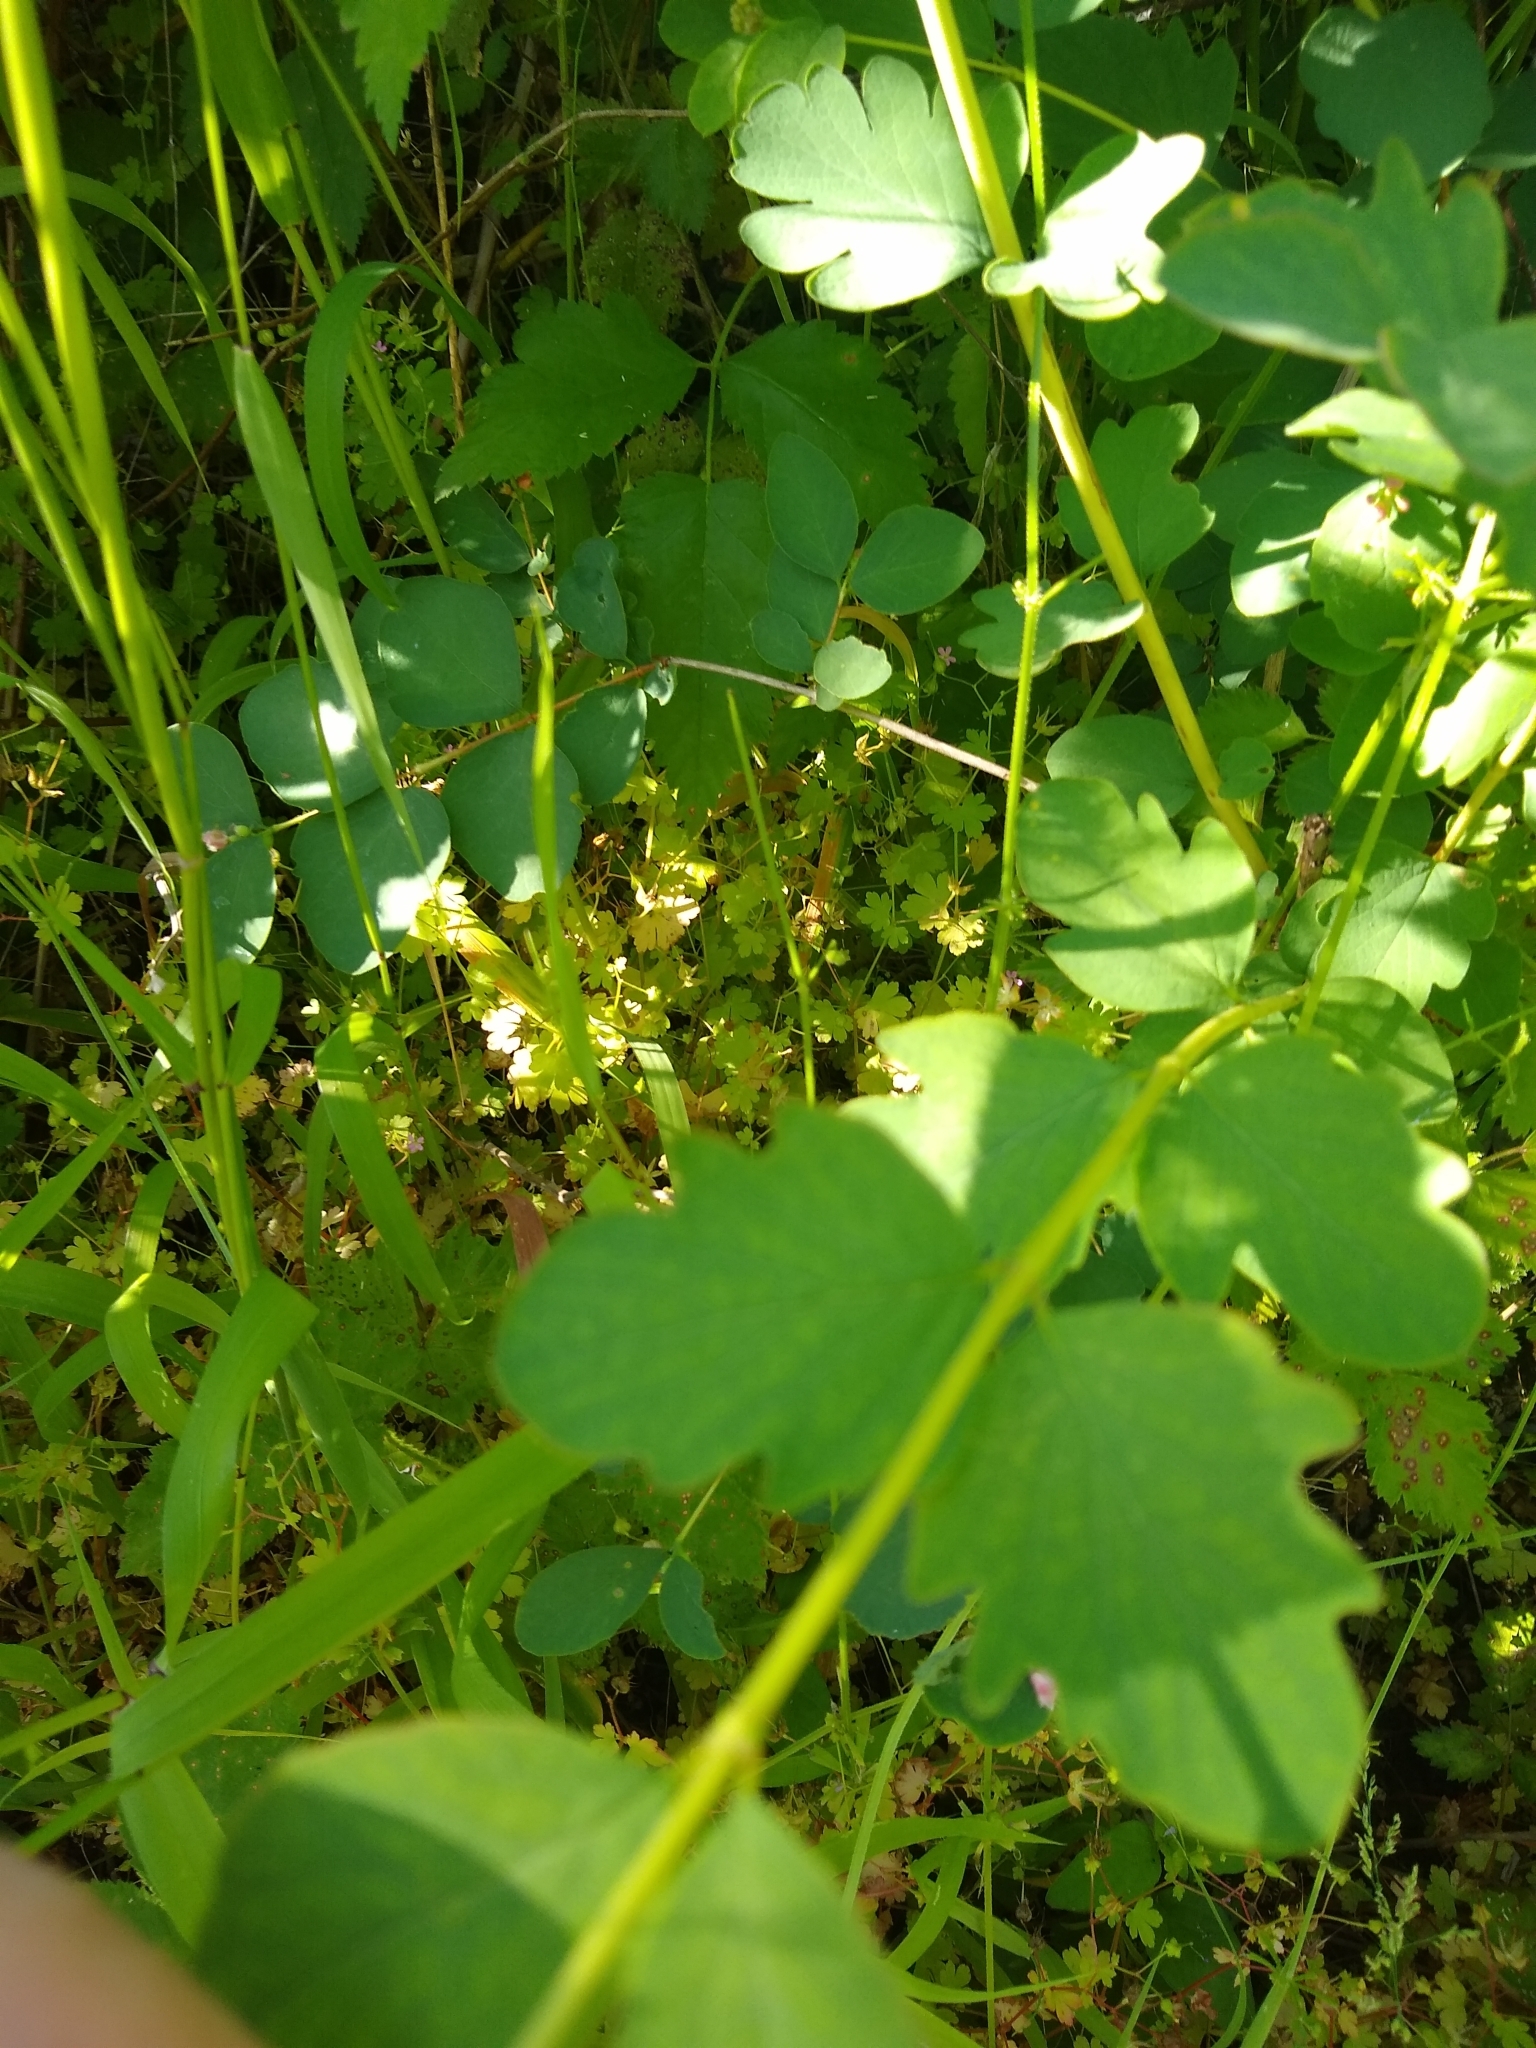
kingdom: Plantae
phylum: Tracheophyta
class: Magnoliopsida
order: Dipsacales
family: Caprifoliaceae
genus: Symphoricarpos
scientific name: Symphoricarpos albus
